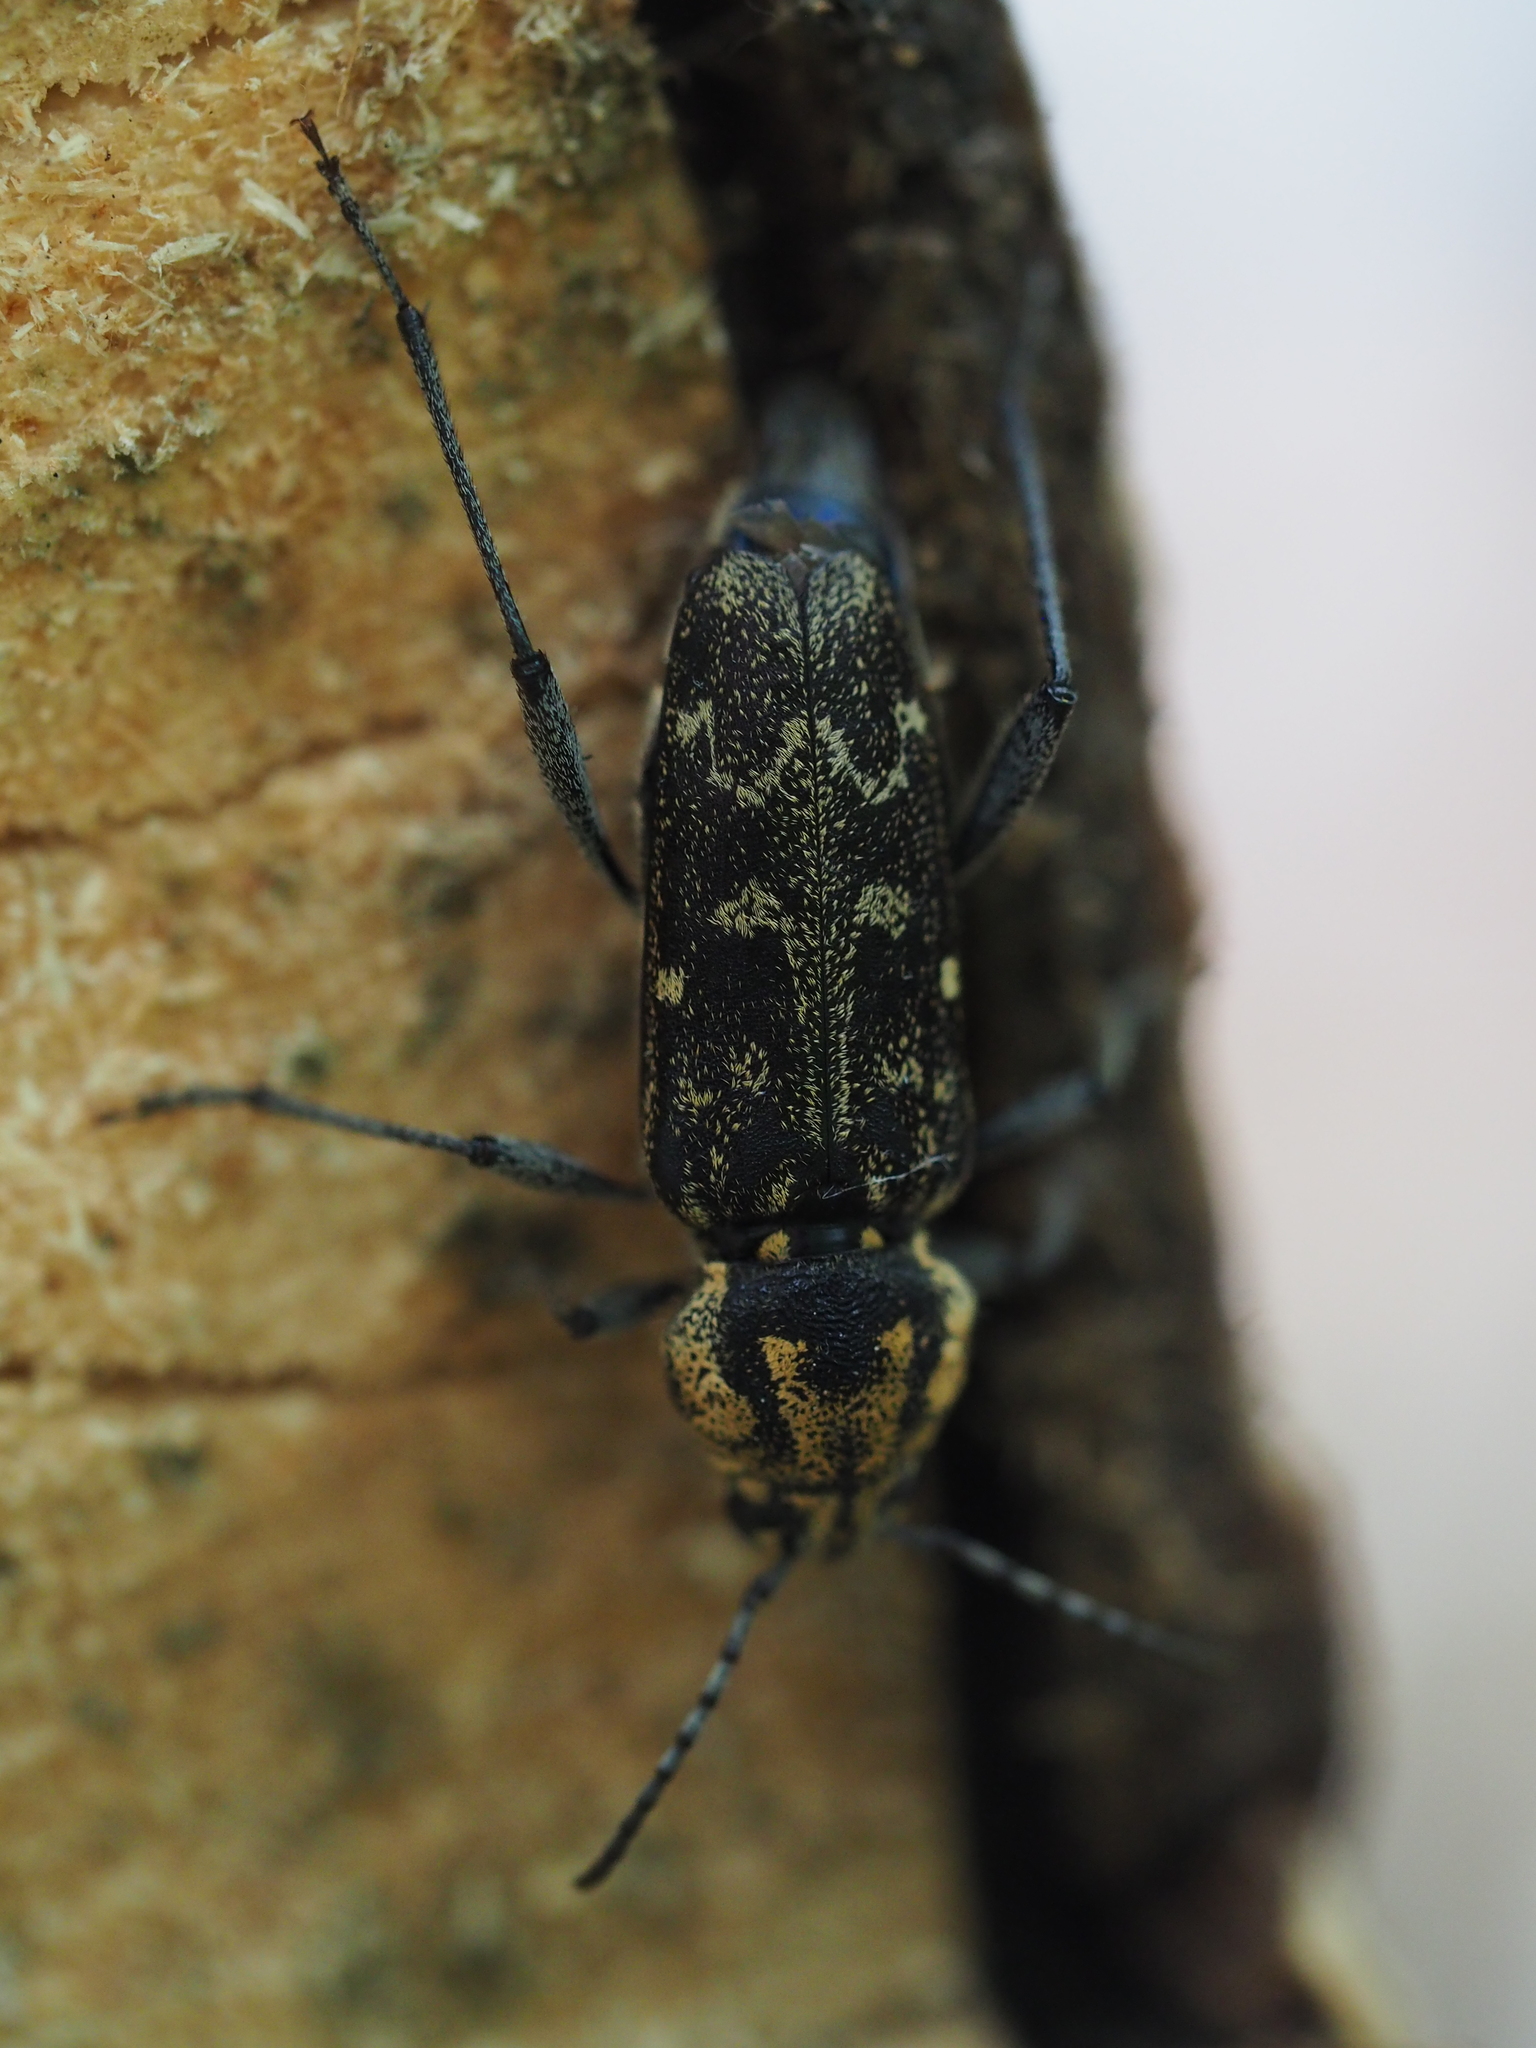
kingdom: Animalia
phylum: Arthropoda
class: Insecta
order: Coleoptera
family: Cerambycidae
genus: Xylotrechus
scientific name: Xylotrechus rusticus
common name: Grey tiger long-horned beetle
